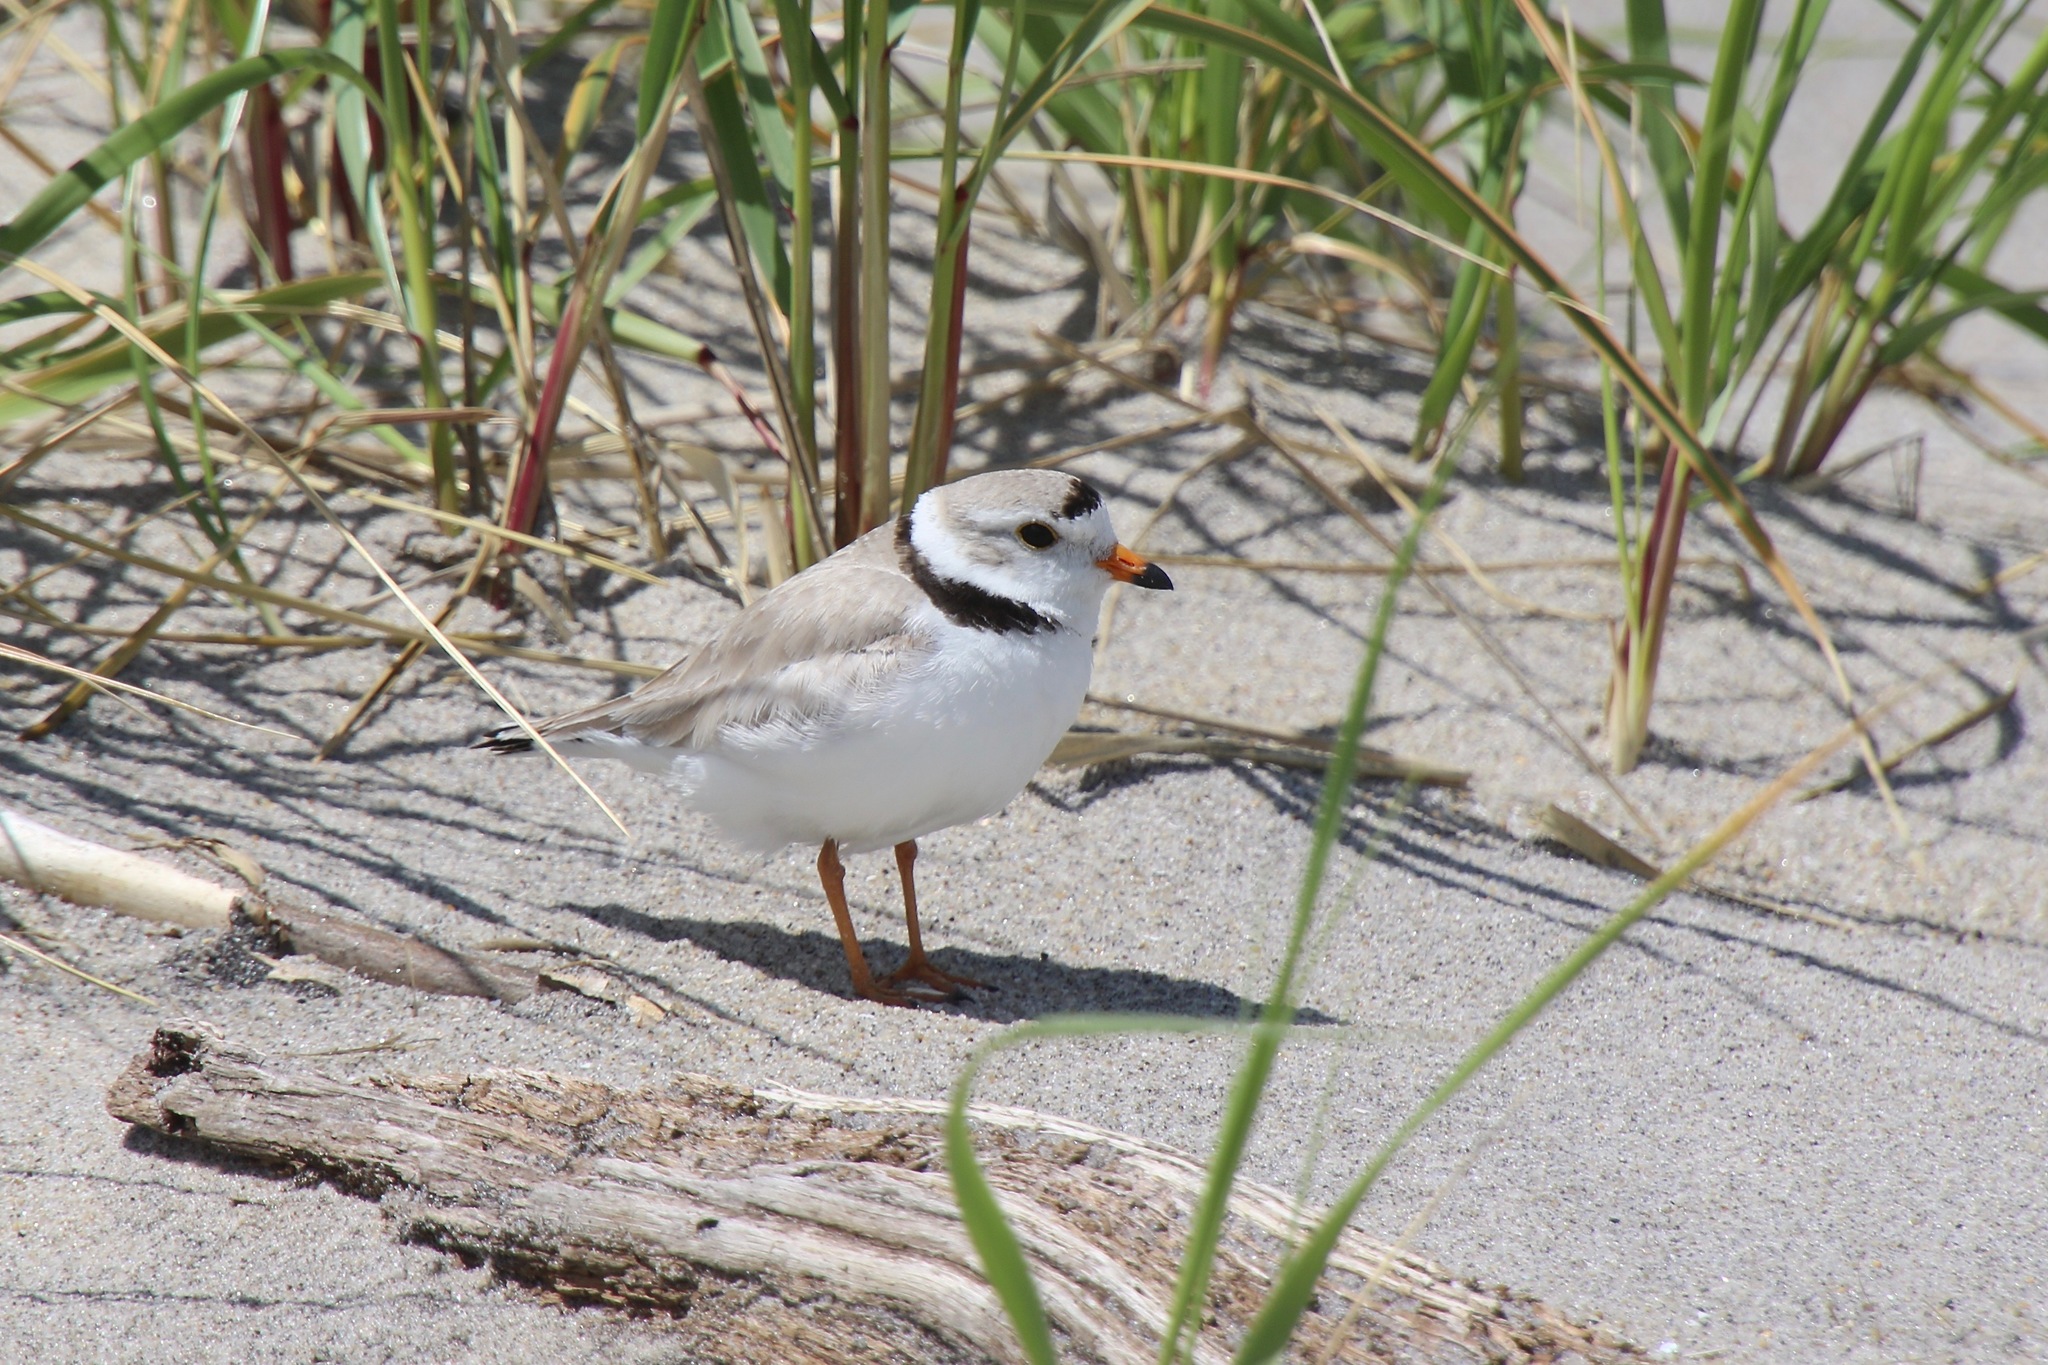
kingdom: Animalia
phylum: Chordata
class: Aves
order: Charadriiformes
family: Charadriidae
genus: Charadrius
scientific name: Charadrius melodus
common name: Piping plover
